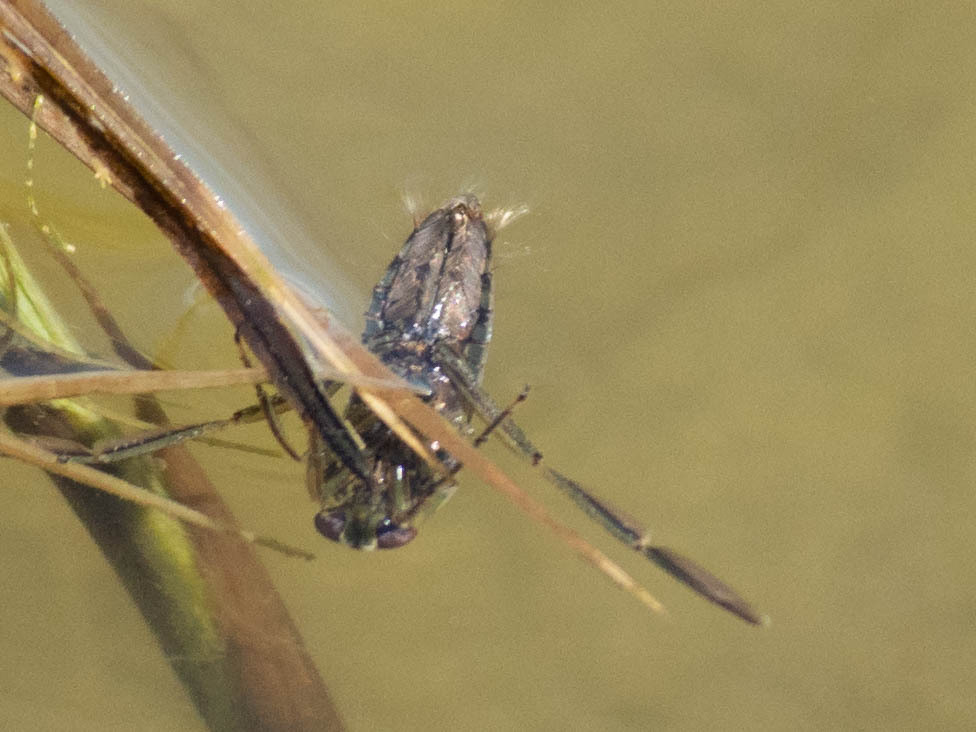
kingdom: Animalia
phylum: Arthropoda
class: Insecta
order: Hemiptera
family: Notonectidae
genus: Notonecta
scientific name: Notonecta
